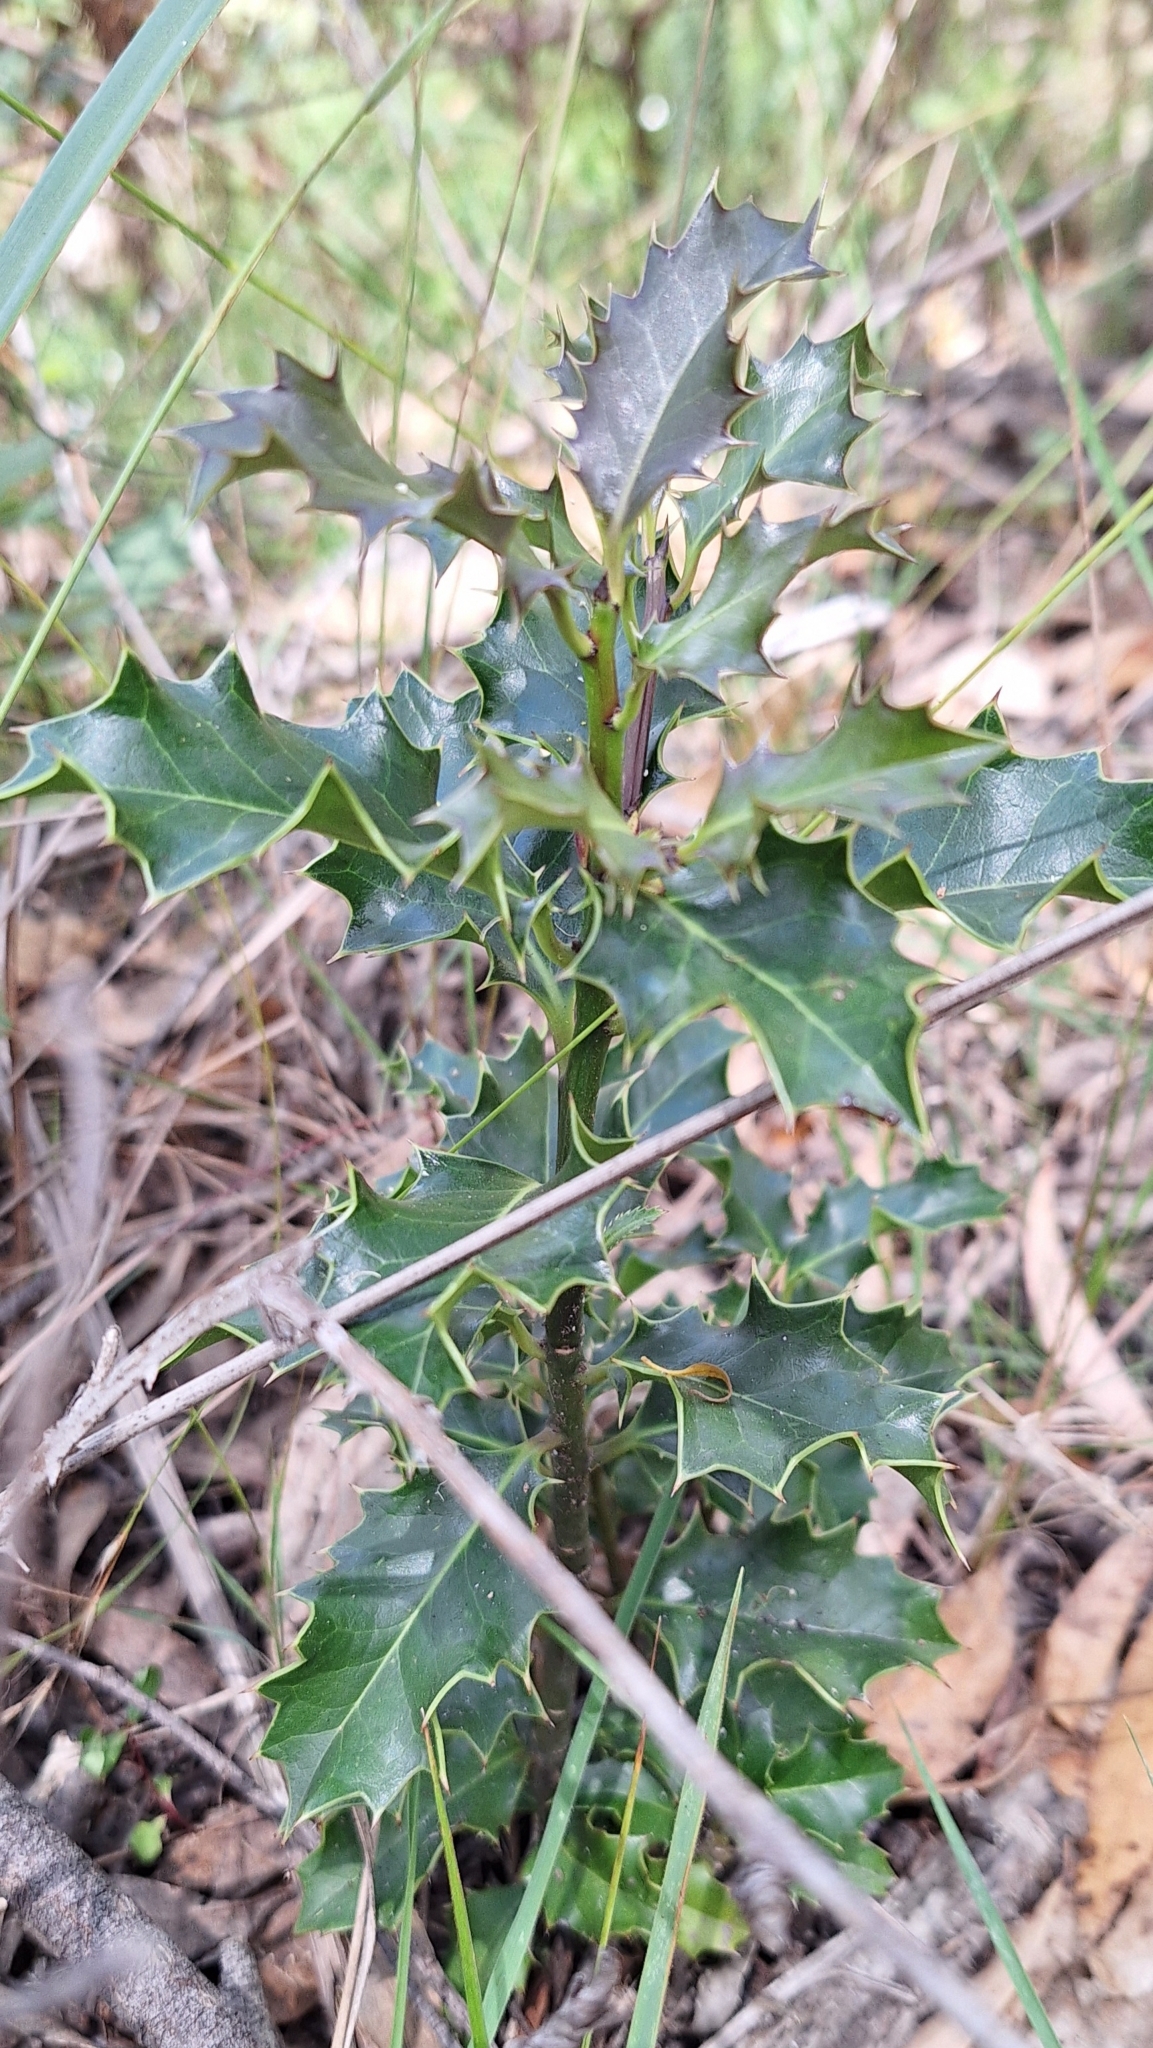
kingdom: Plantae
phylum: Tracheophyta
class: Magnoliopsida
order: Aquifoliales
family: Aquifoliaceae
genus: Ilex
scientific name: Ilex aquifolium
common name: English holly
